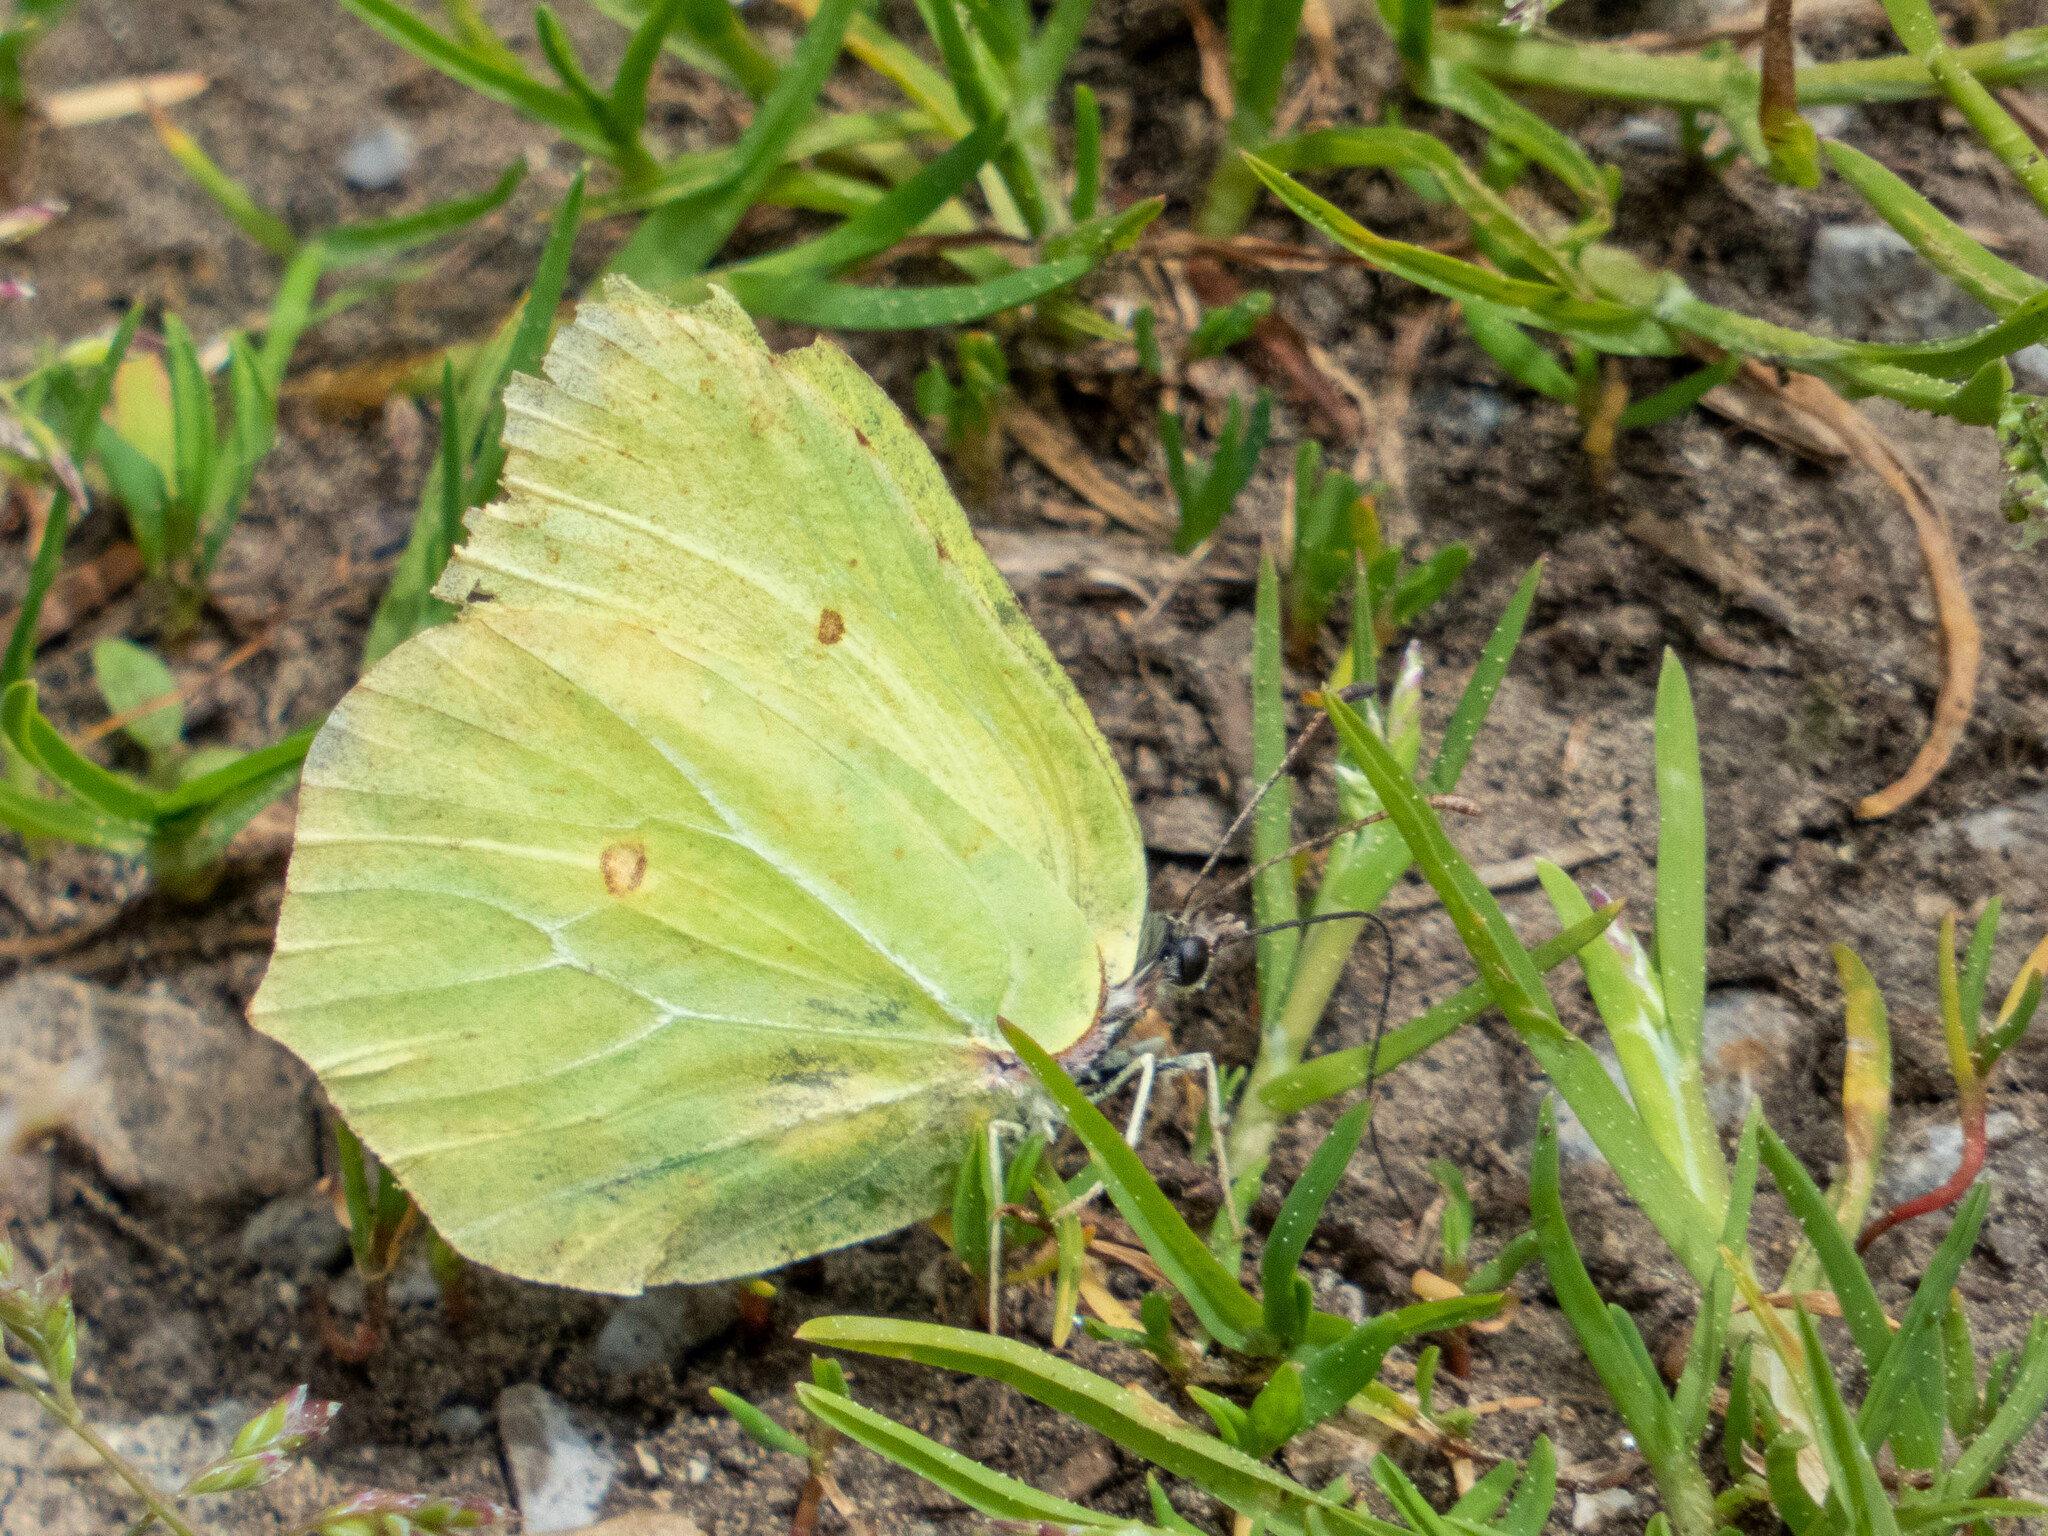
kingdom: Animalia
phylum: Arthropoda
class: Insecta
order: Lepidoptera
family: Pieridae
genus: Gonepteryx
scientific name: Gonepteryx rhamni
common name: Brimstone
